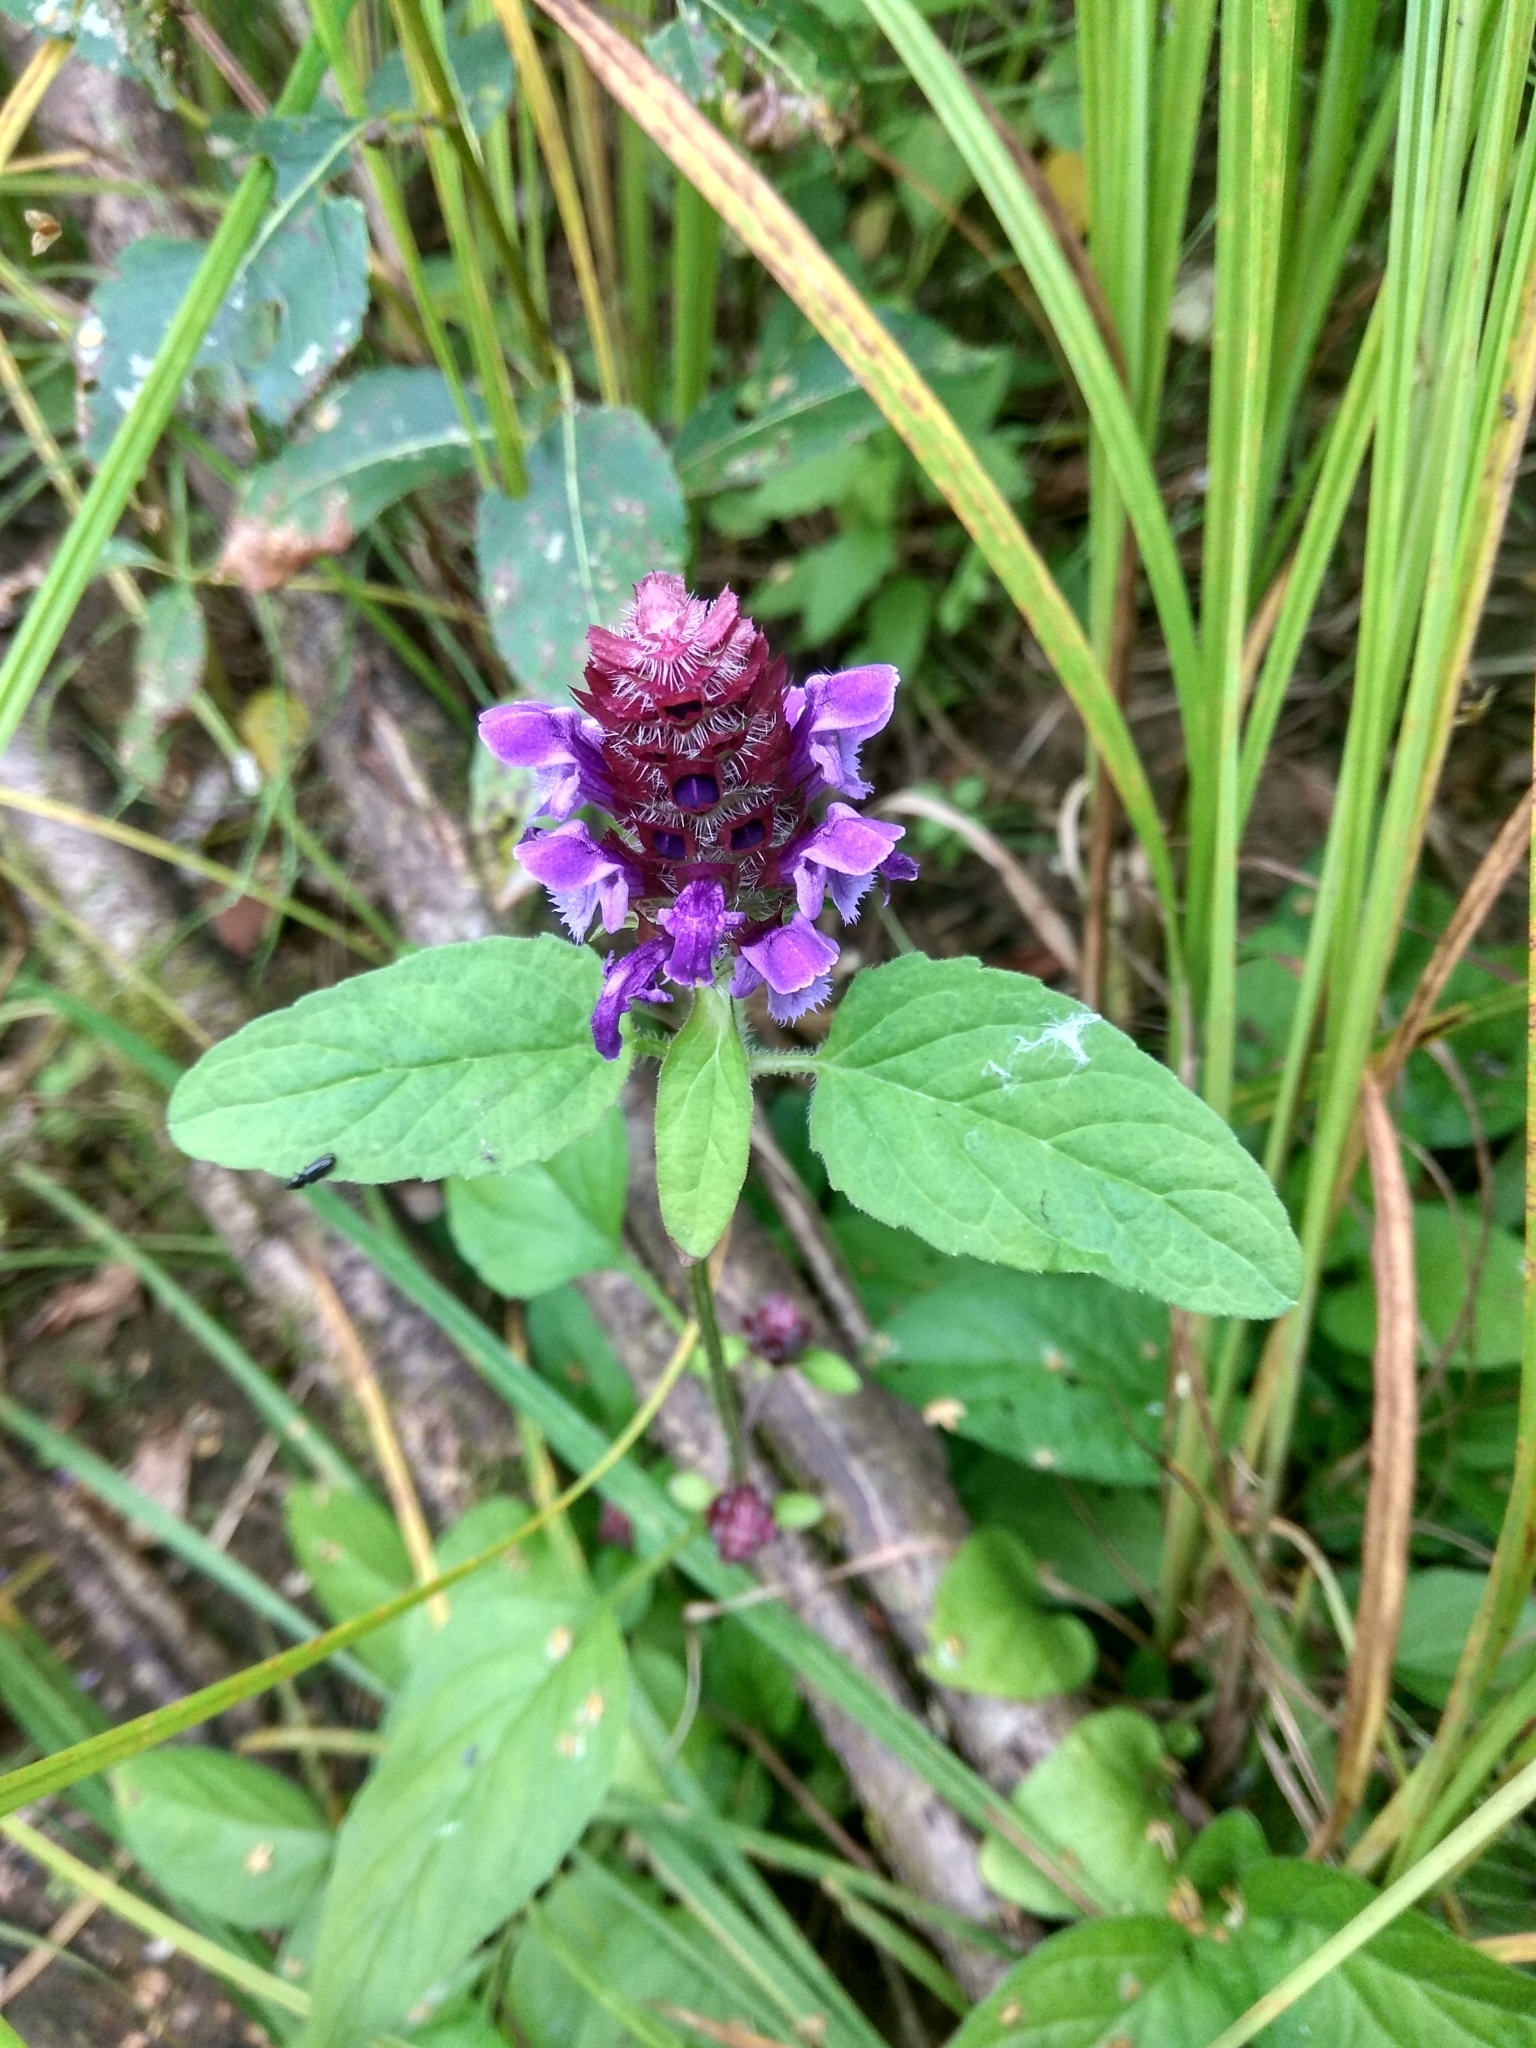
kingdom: Plantae
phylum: Tracheophyta
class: Magnoliopsida
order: Lamiales
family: Lamiaceae
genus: Prunella
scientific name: Prunella vulgaris
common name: Heal-all
